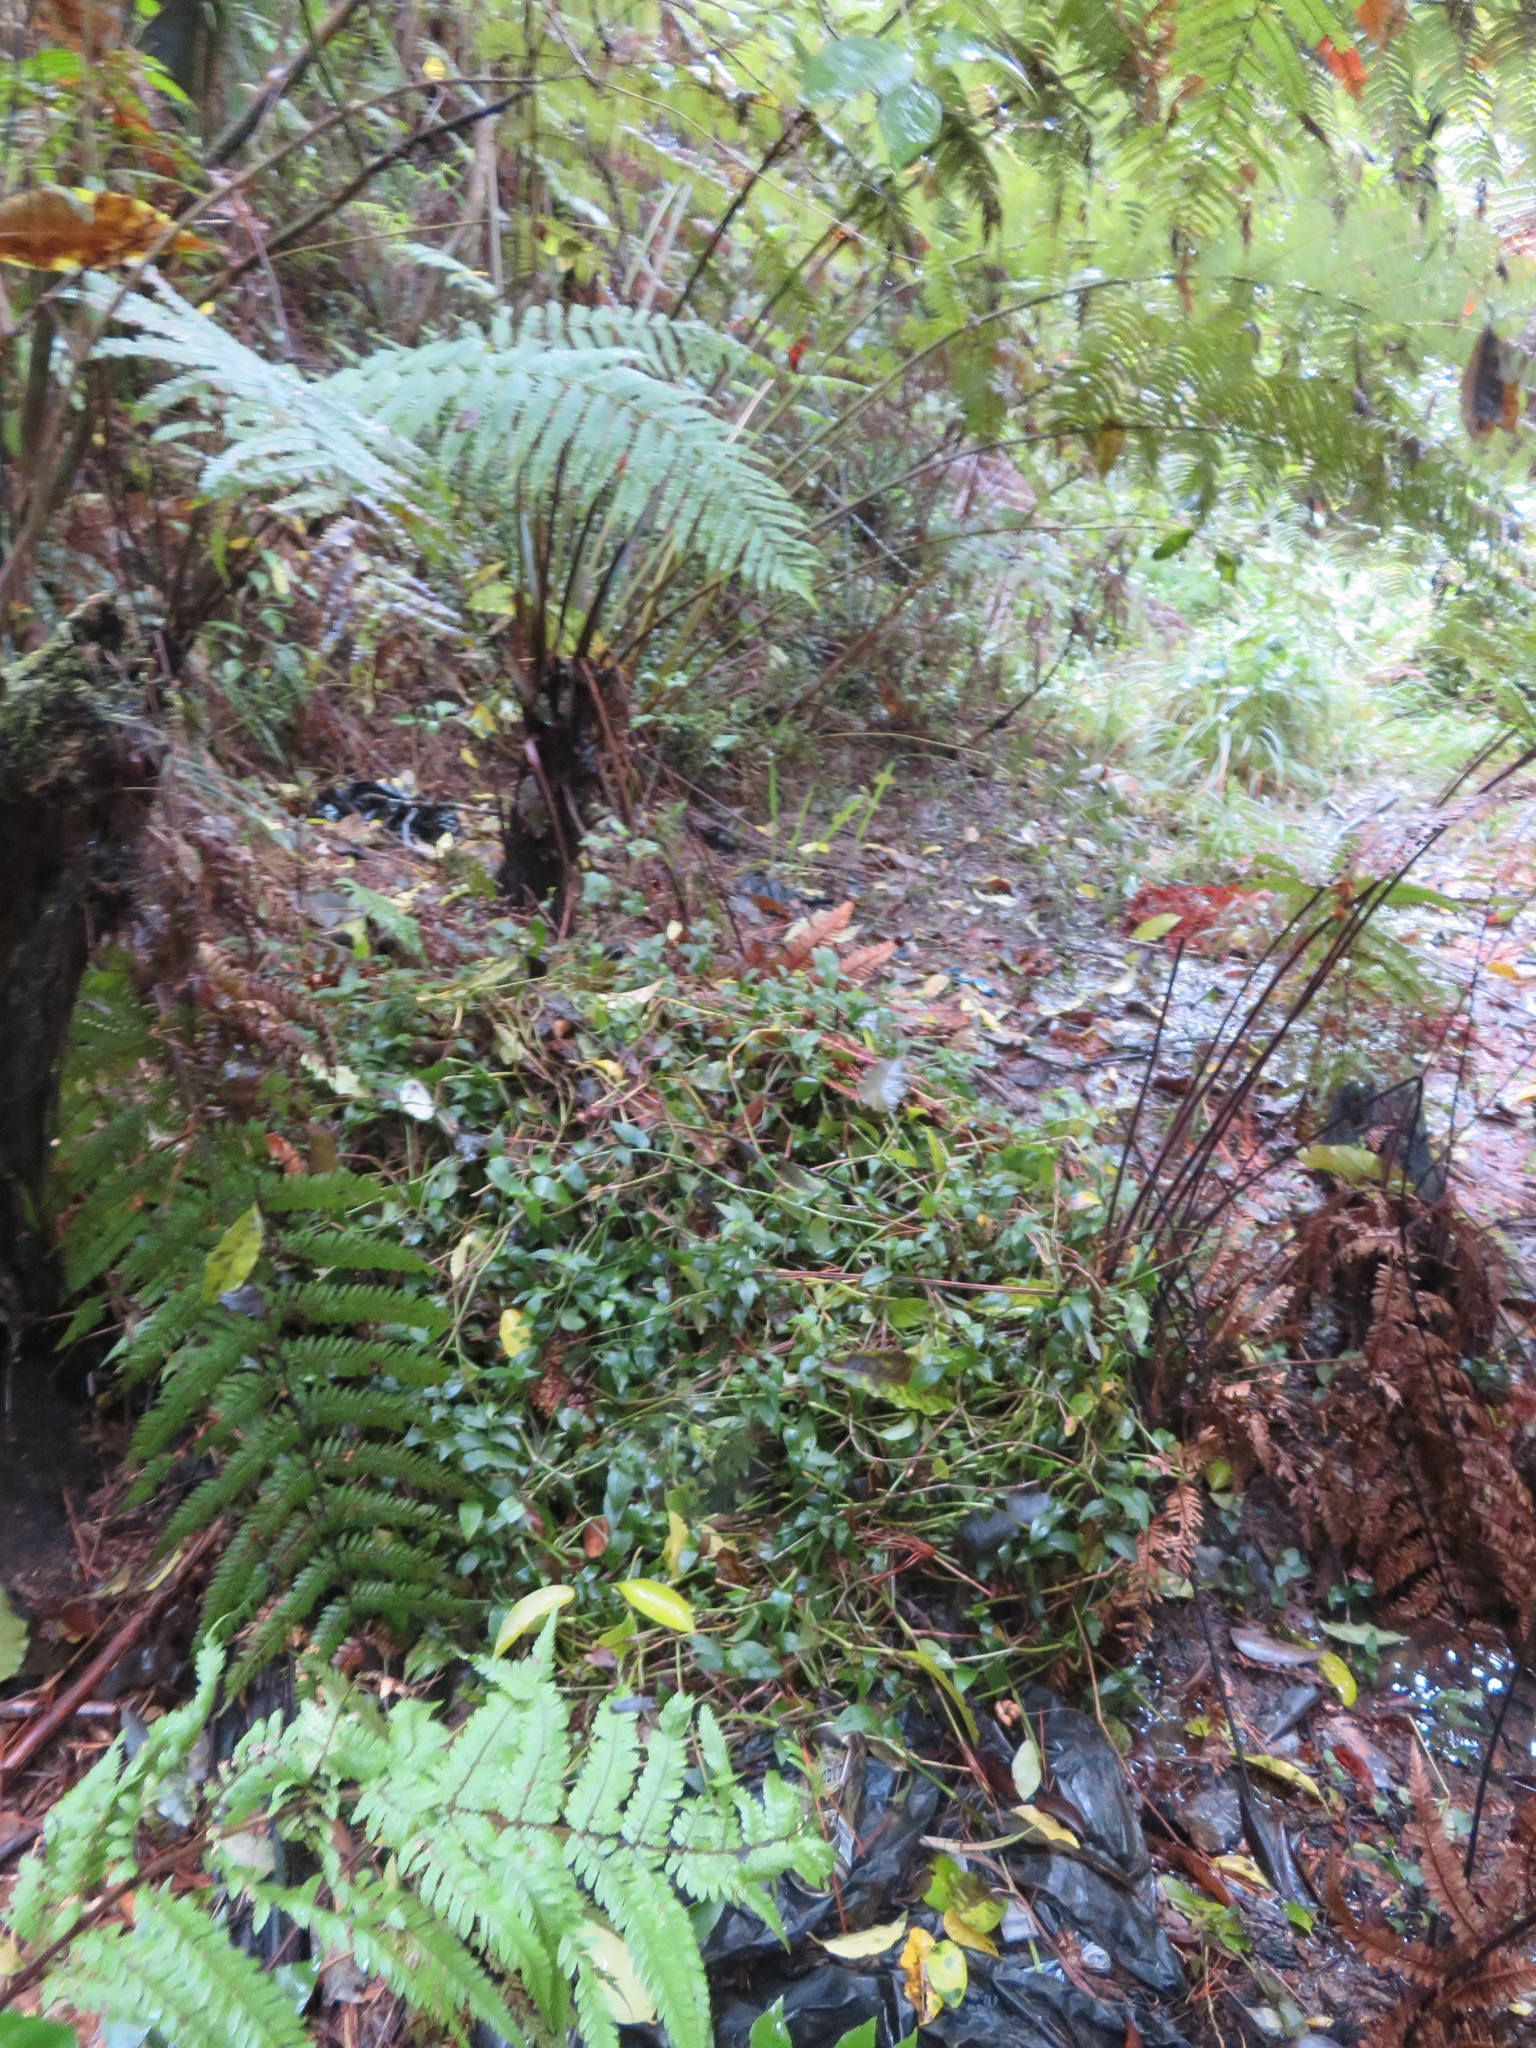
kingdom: Plantae
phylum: Tracheophyta
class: Liliopsida
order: Commelinales
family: Commelinaceae
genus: Tradescantia
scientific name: Tradescantia fluminensis
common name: Wandering-jew
